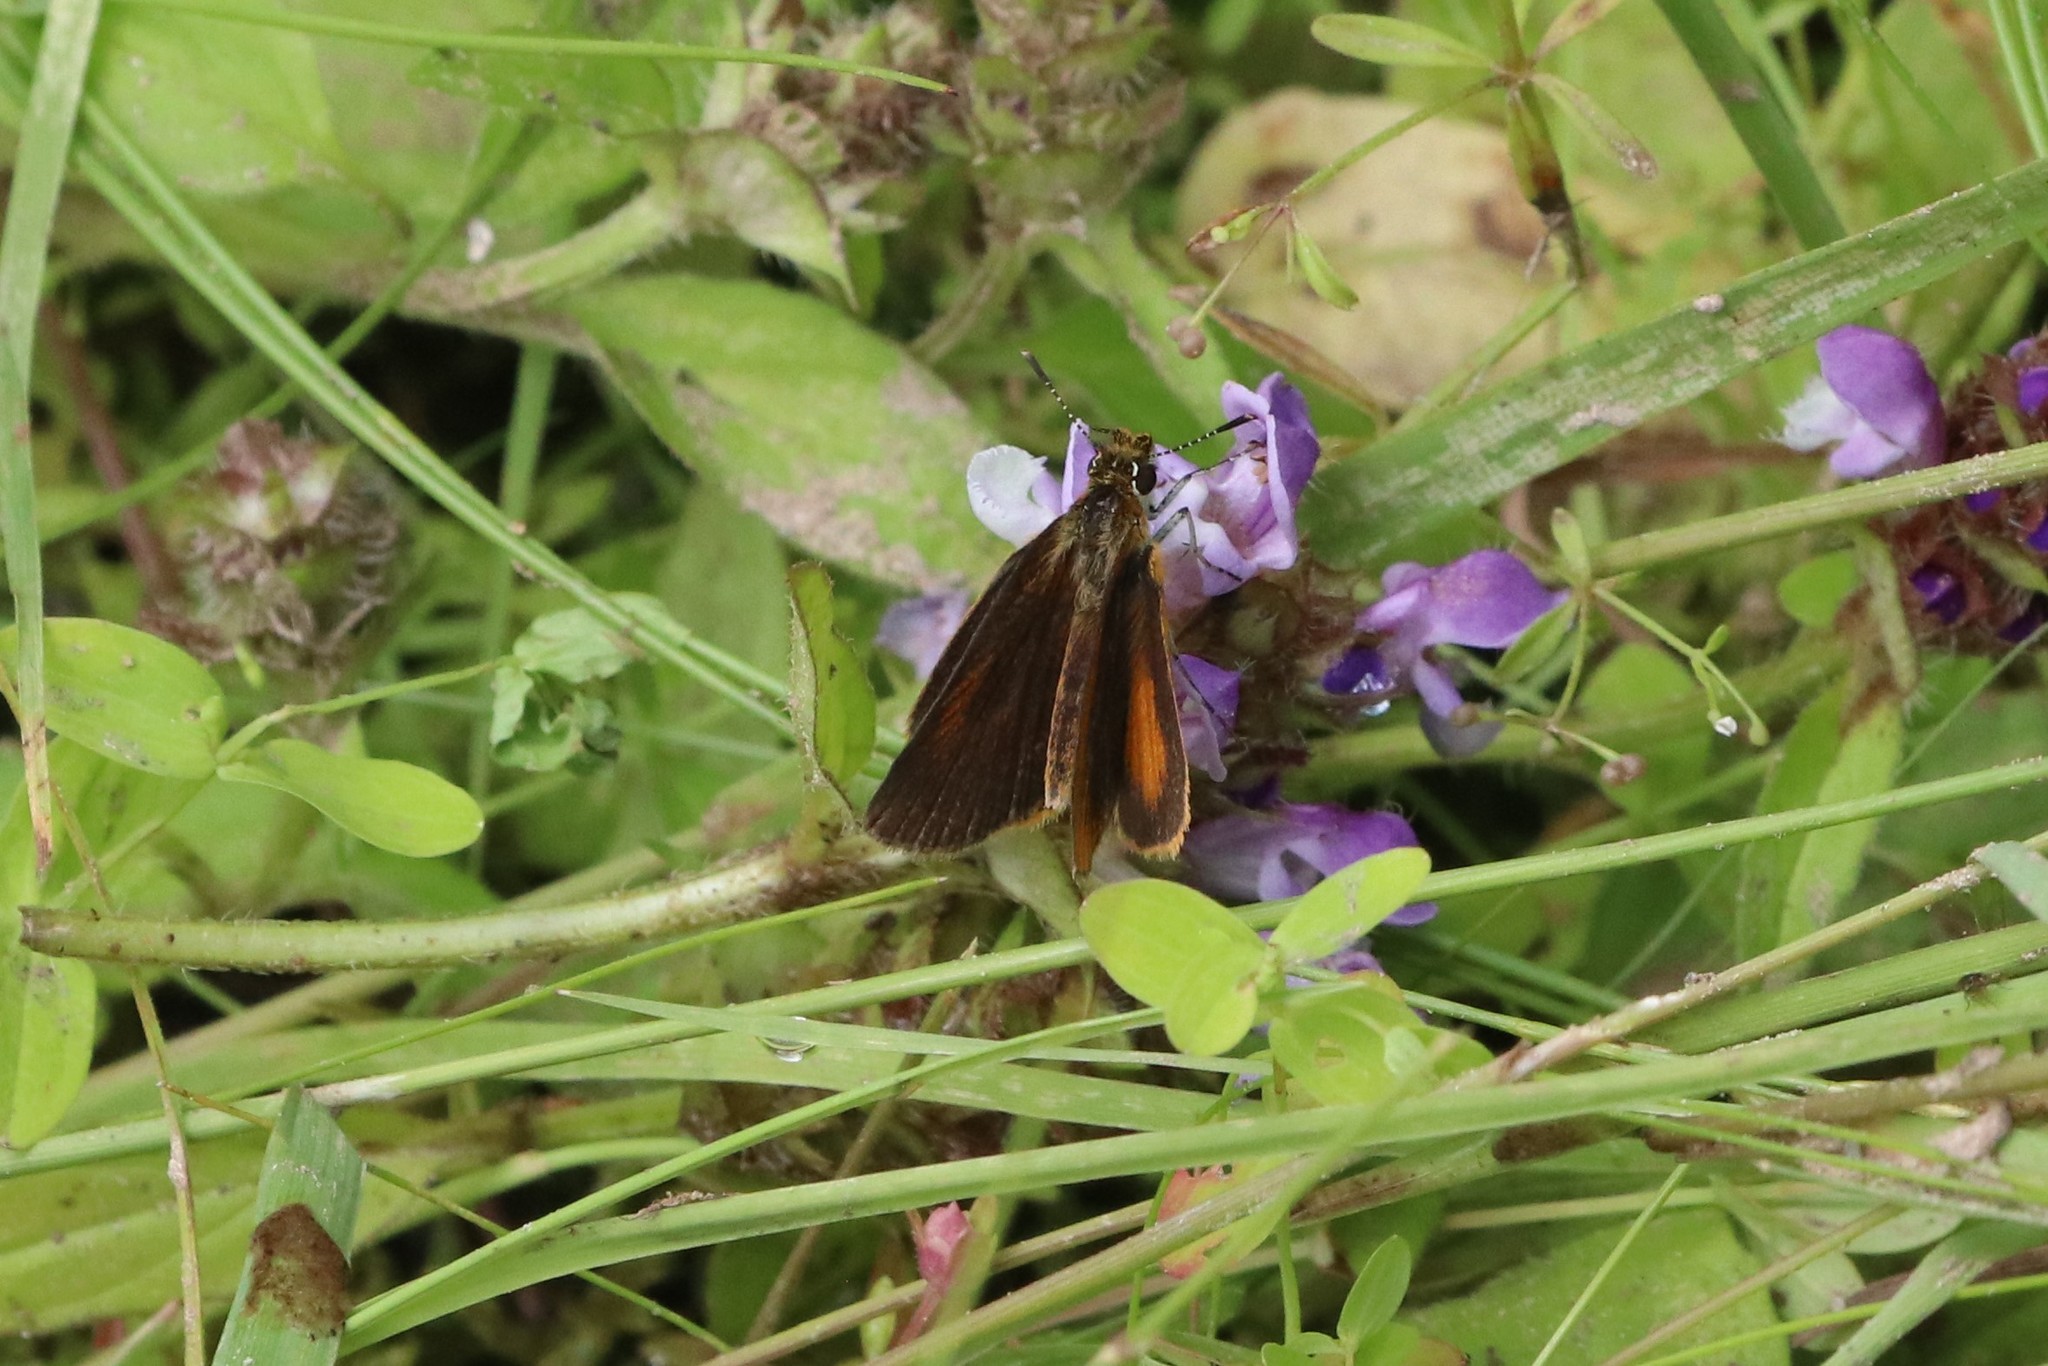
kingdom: Animalia
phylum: Arthropoda
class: Insecta
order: Lepidoptera
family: Hesperiidae
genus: Ancyloxypha
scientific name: Ancyloxypha numitor
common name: Least skipper
